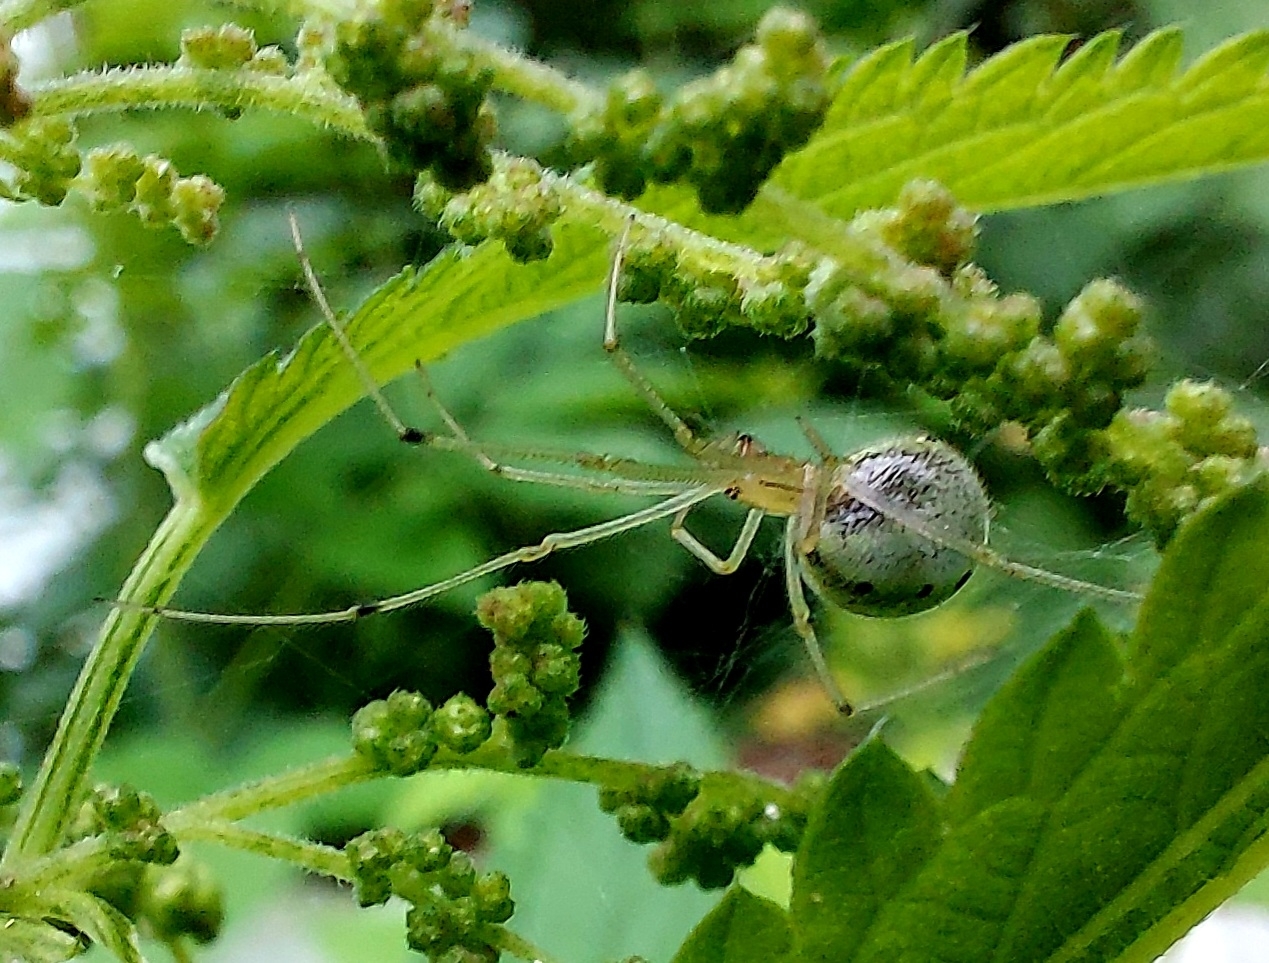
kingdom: Animalia
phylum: Arthropoda
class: Arachnida
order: Araneae
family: Theridiidae
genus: Enoplognatha
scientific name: Enoplognatha ovata
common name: Common candy-striped spider
